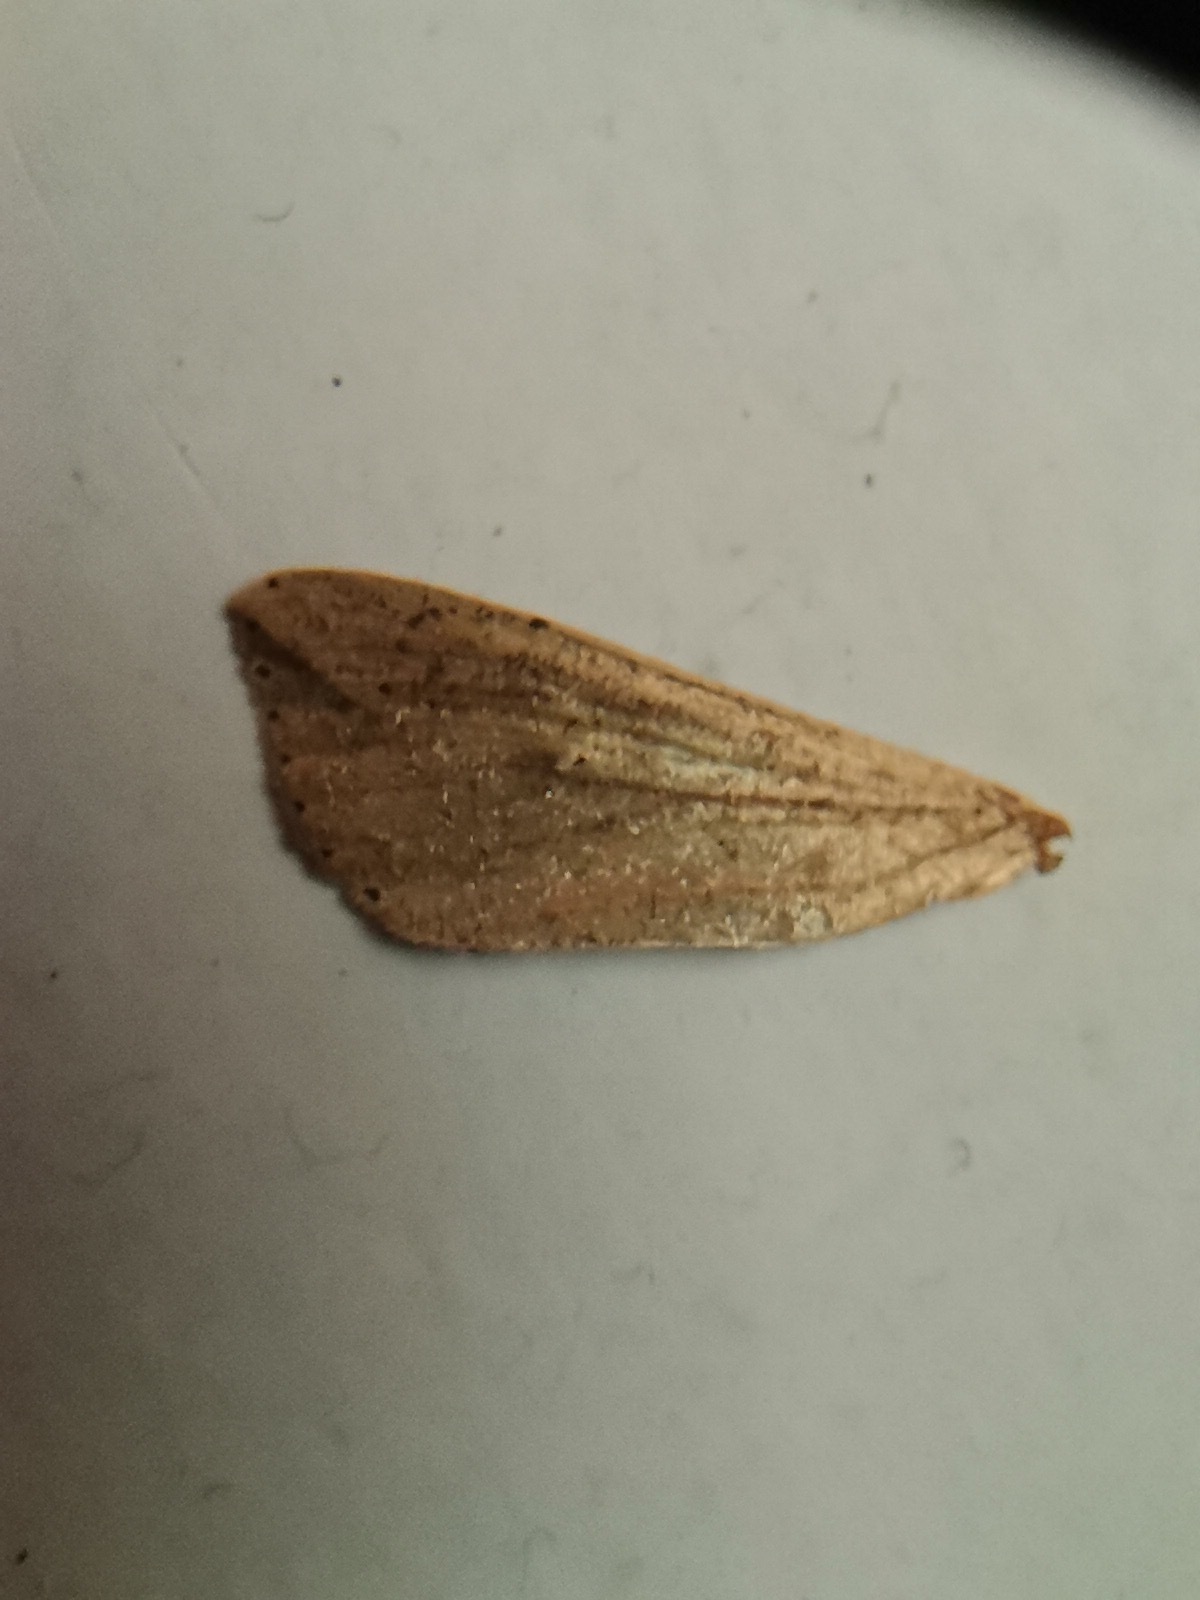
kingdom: Animalia
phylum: Arthropoda
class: Insecta
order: Lepidoptera
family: Noctuidae
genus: Mythimna
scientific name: Mythimna unipuncta
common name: White-speck
